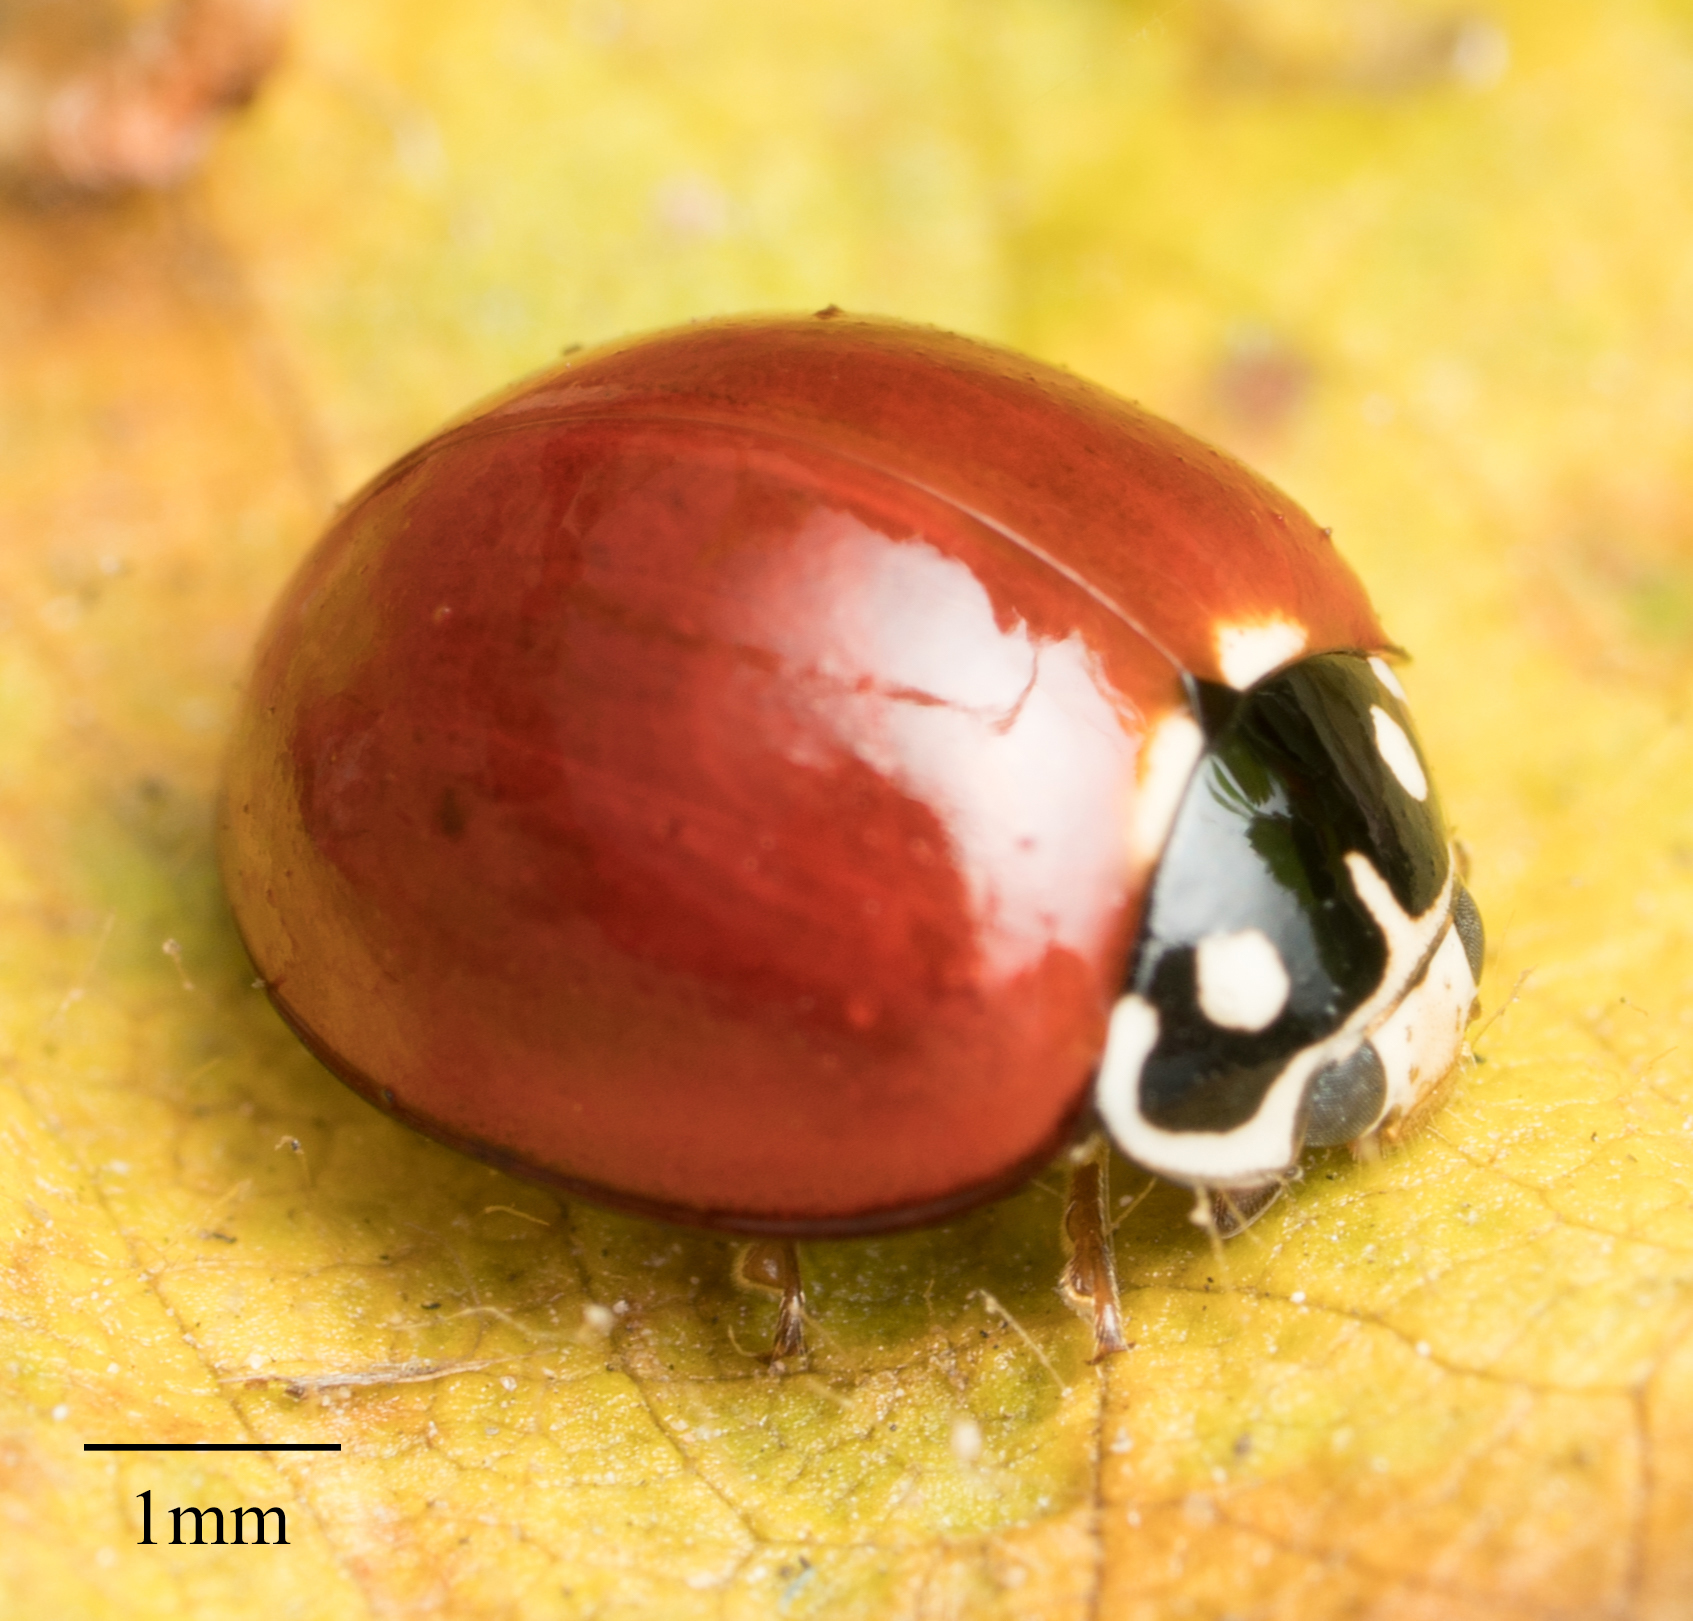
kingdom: Animalia
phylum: Arthropoda
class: Insecta
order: Coleoptera
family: Coccinellidae
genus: Cycloneda
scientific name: Cycloneda sanguinea
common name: Ladybird beetle
